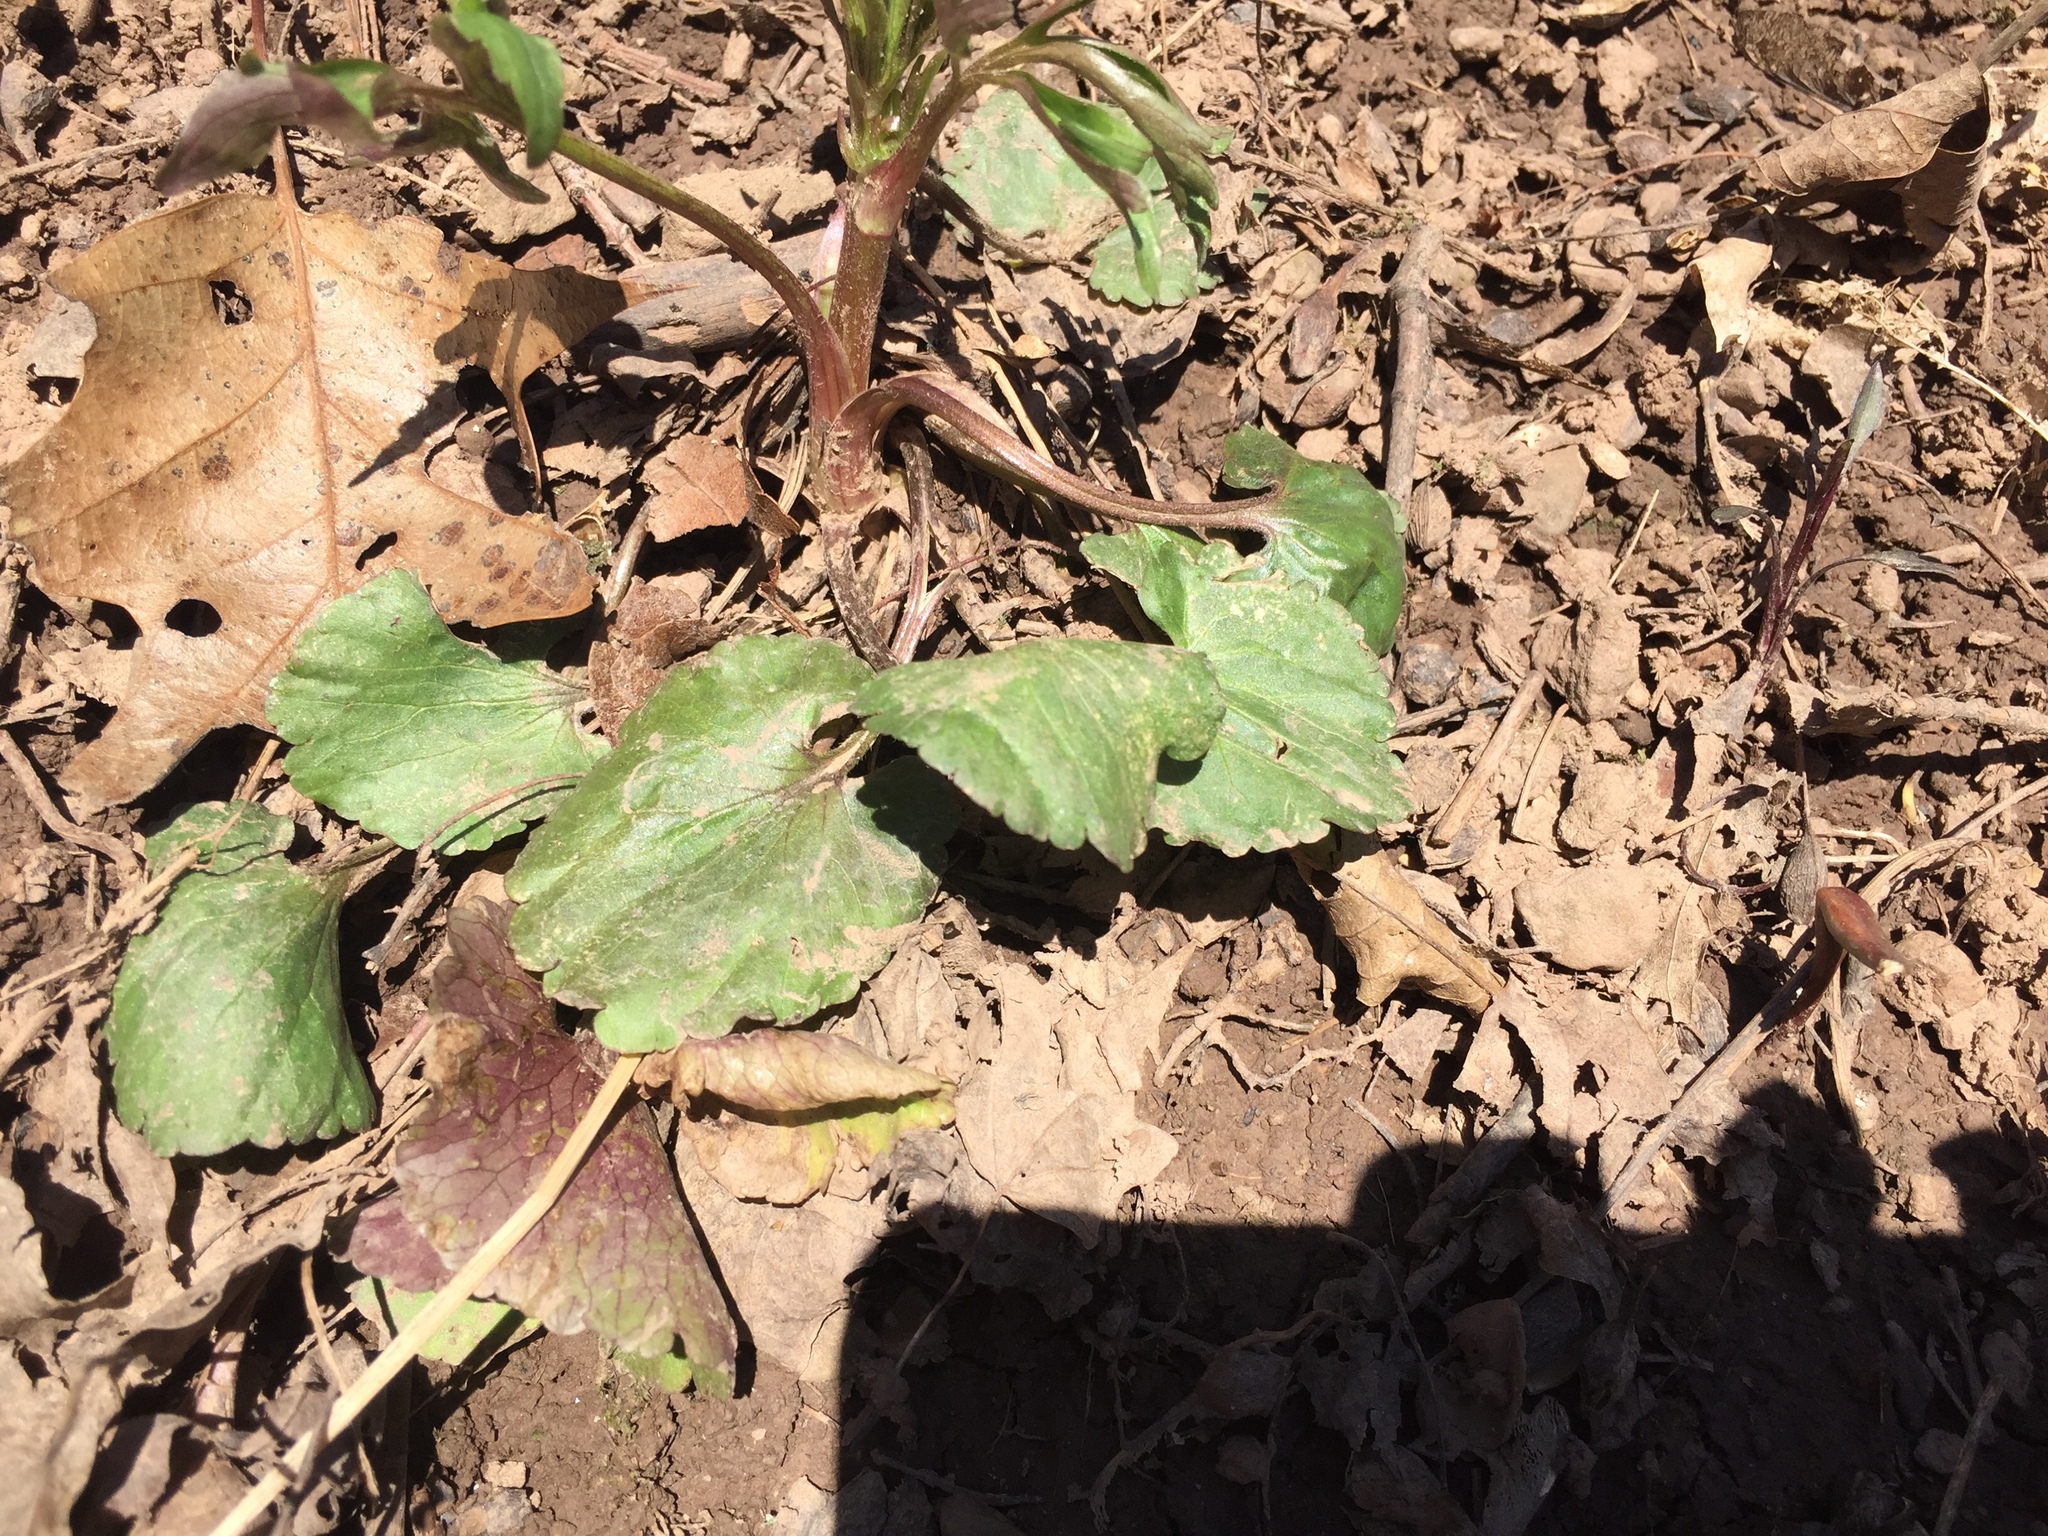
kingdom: Plantae
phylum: Tracheophyta
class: Magnoliopsida
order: Ranunculales
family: Ranunculaceae
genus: Ranunculus
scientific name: Ranunculus abortivus
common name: Early wood buttercup
